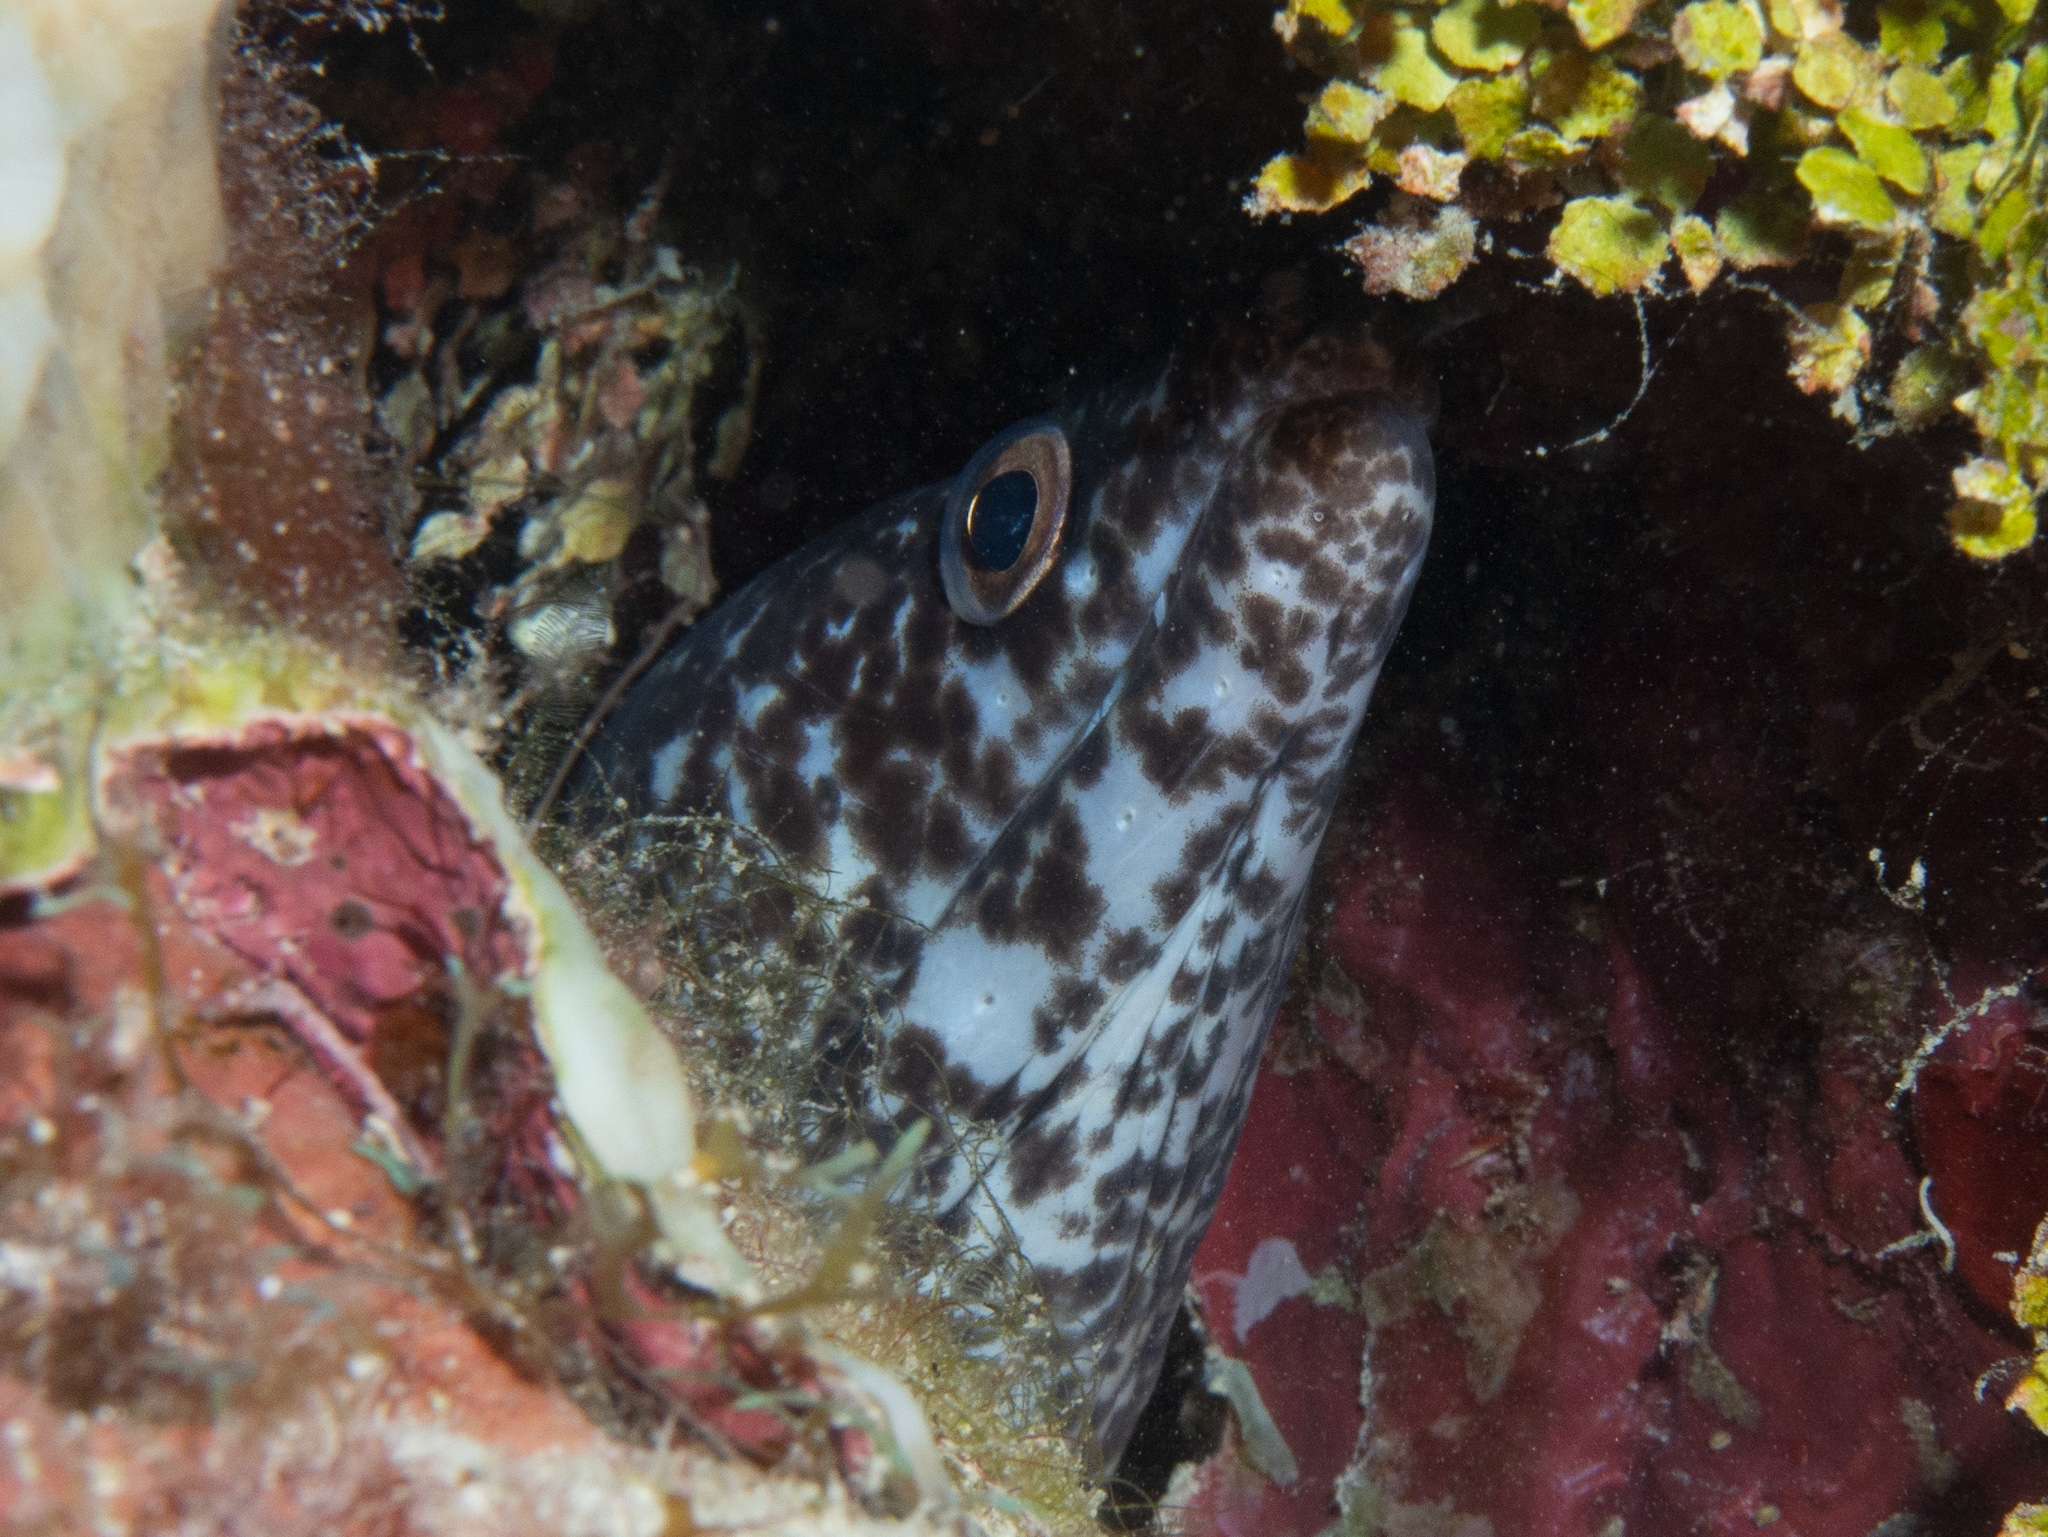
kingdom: Animalia
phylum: Chordata
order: Anguilliformes
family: Muraenidae
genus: Gymnothorax
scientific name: Gymnothorax moringa
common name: Spotted moray
